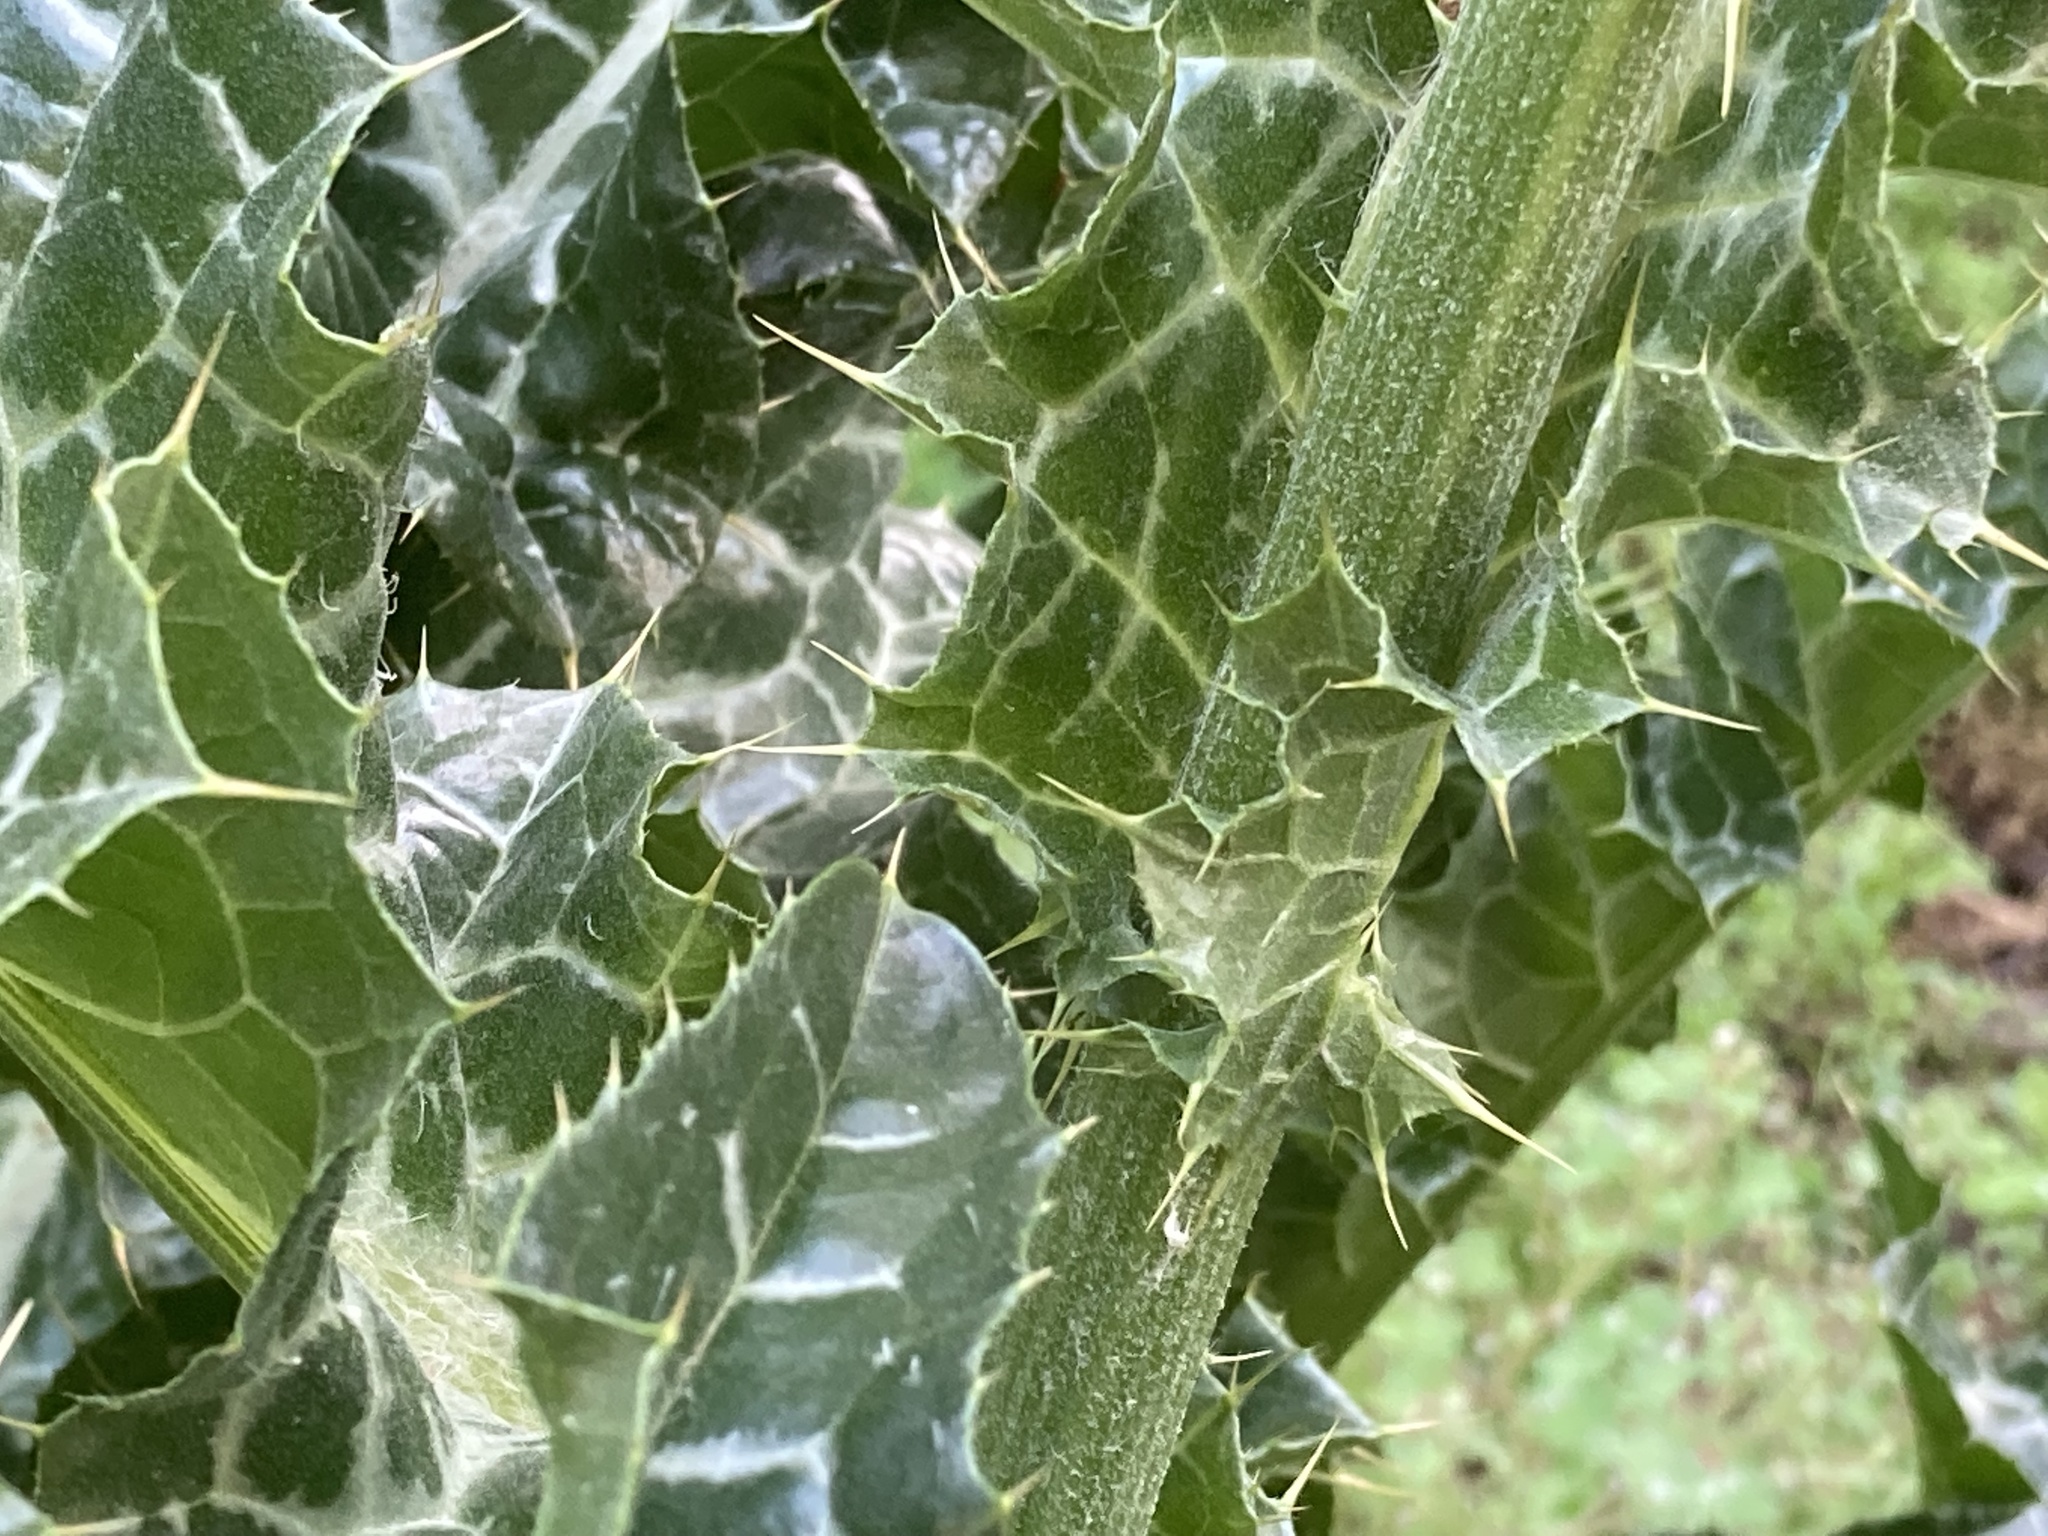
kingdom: Plantae
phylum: Tracheophyta
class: Magnoliopsida
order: Asterales
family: Asteraceae
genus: Silybum
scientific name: Silybum marianum
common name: Milk thistle
